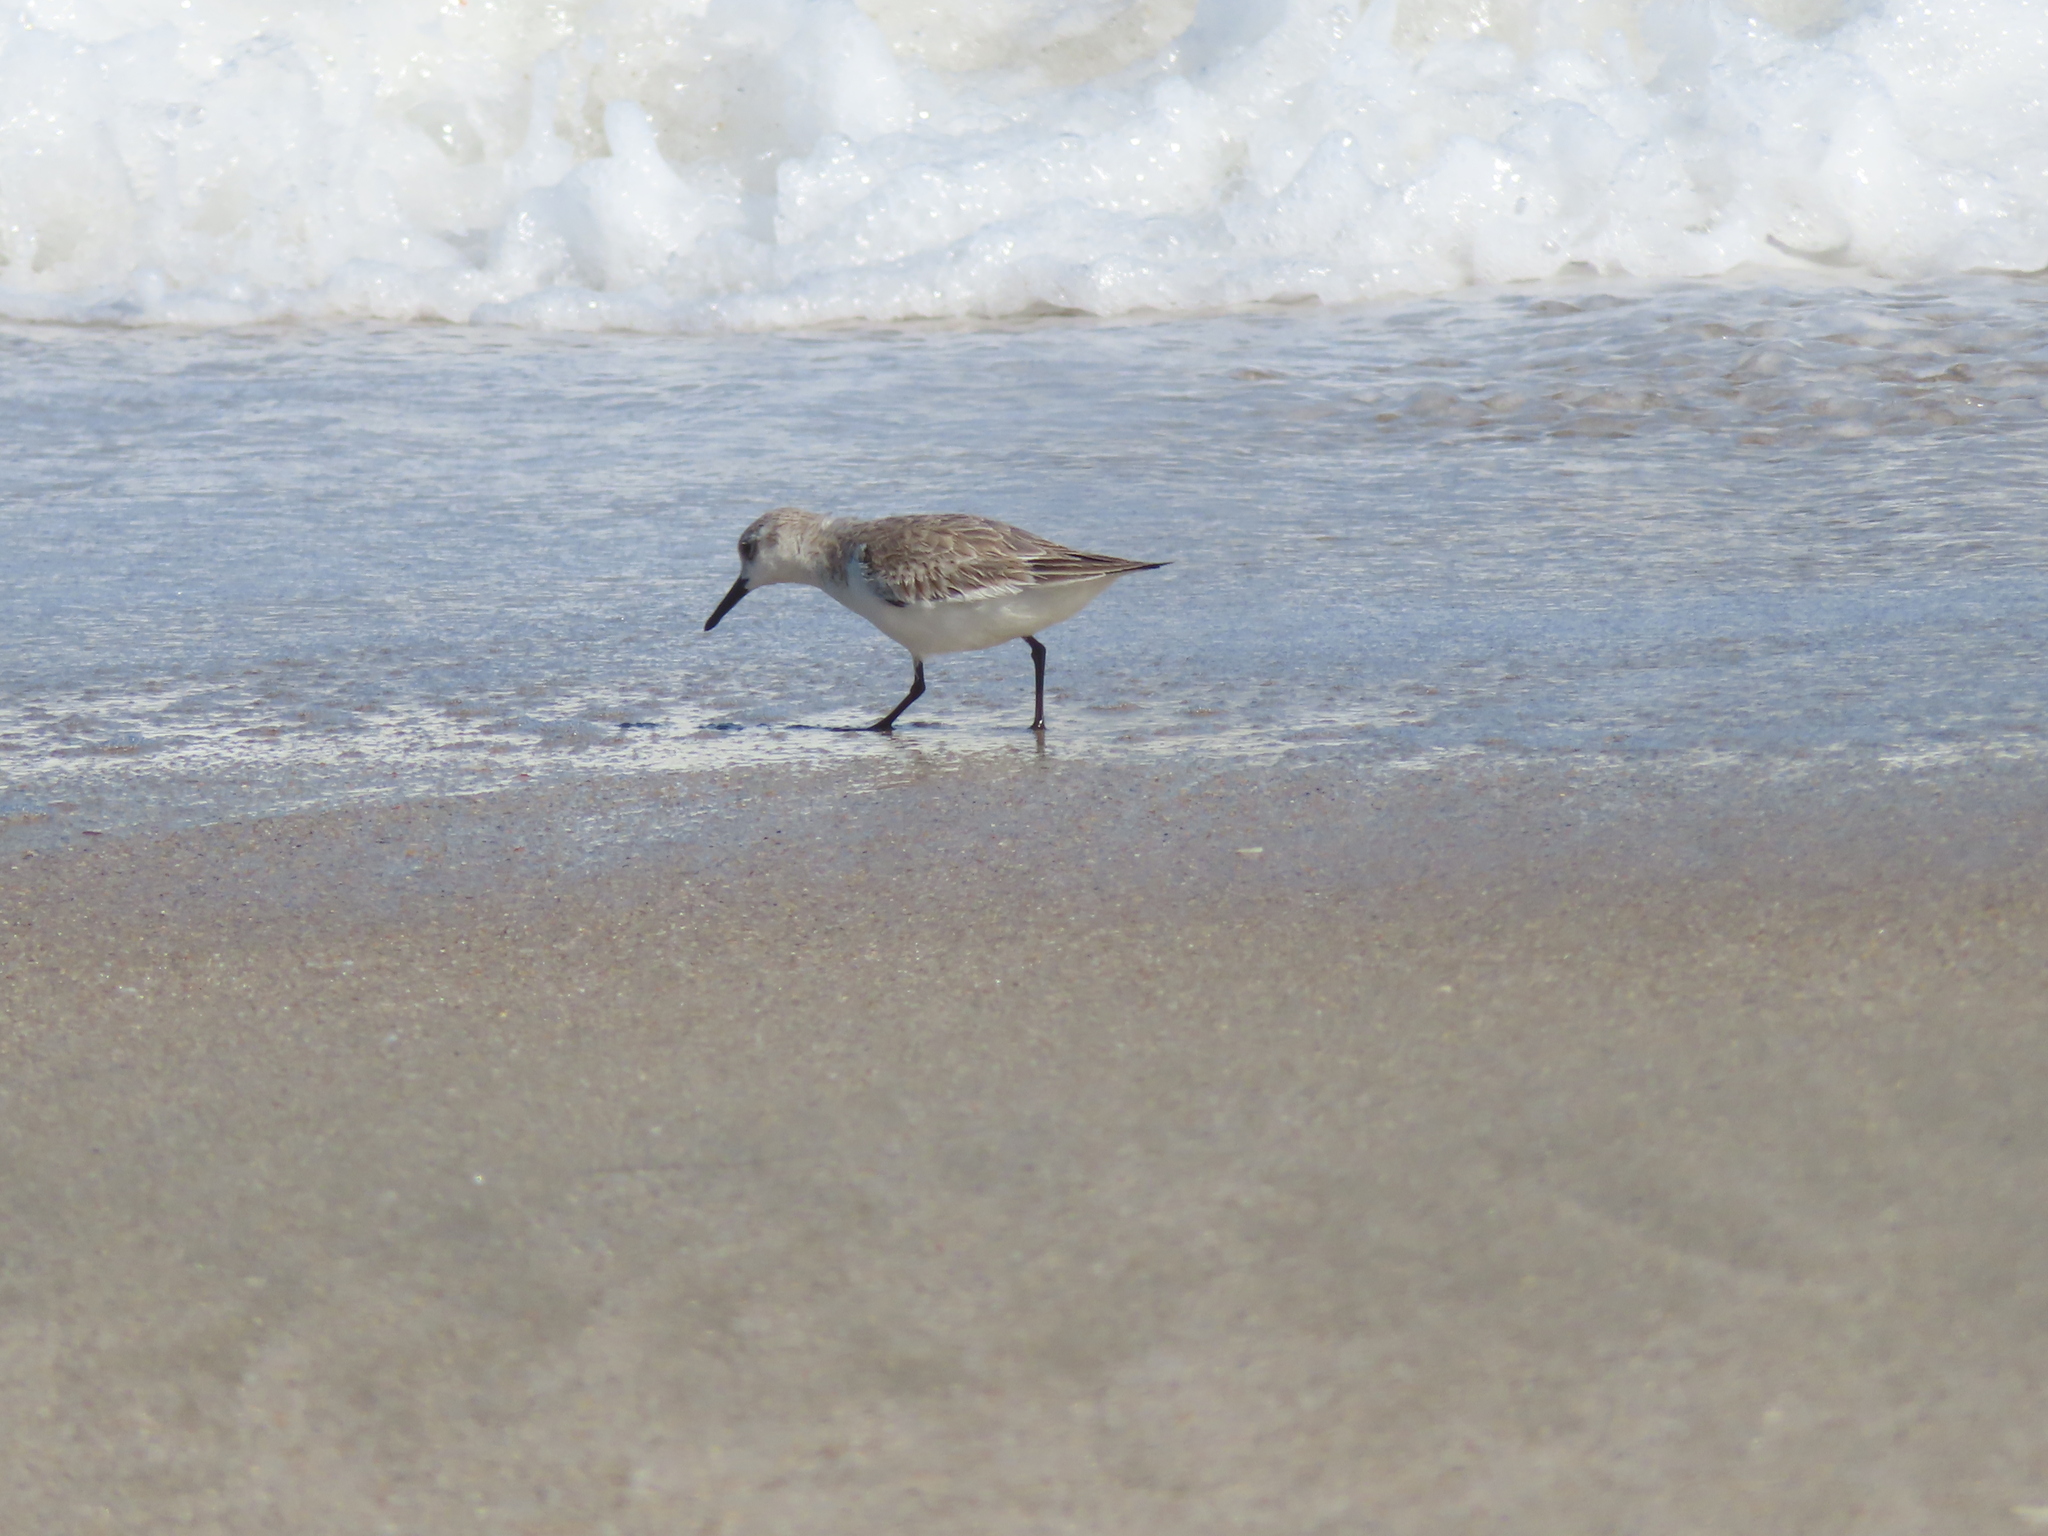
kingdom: Animalia
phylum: Chordata
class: Aves
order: Charadriiformes
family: Scolopacidae
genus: Calidris
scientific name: Calidris alba
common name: Sanderling
